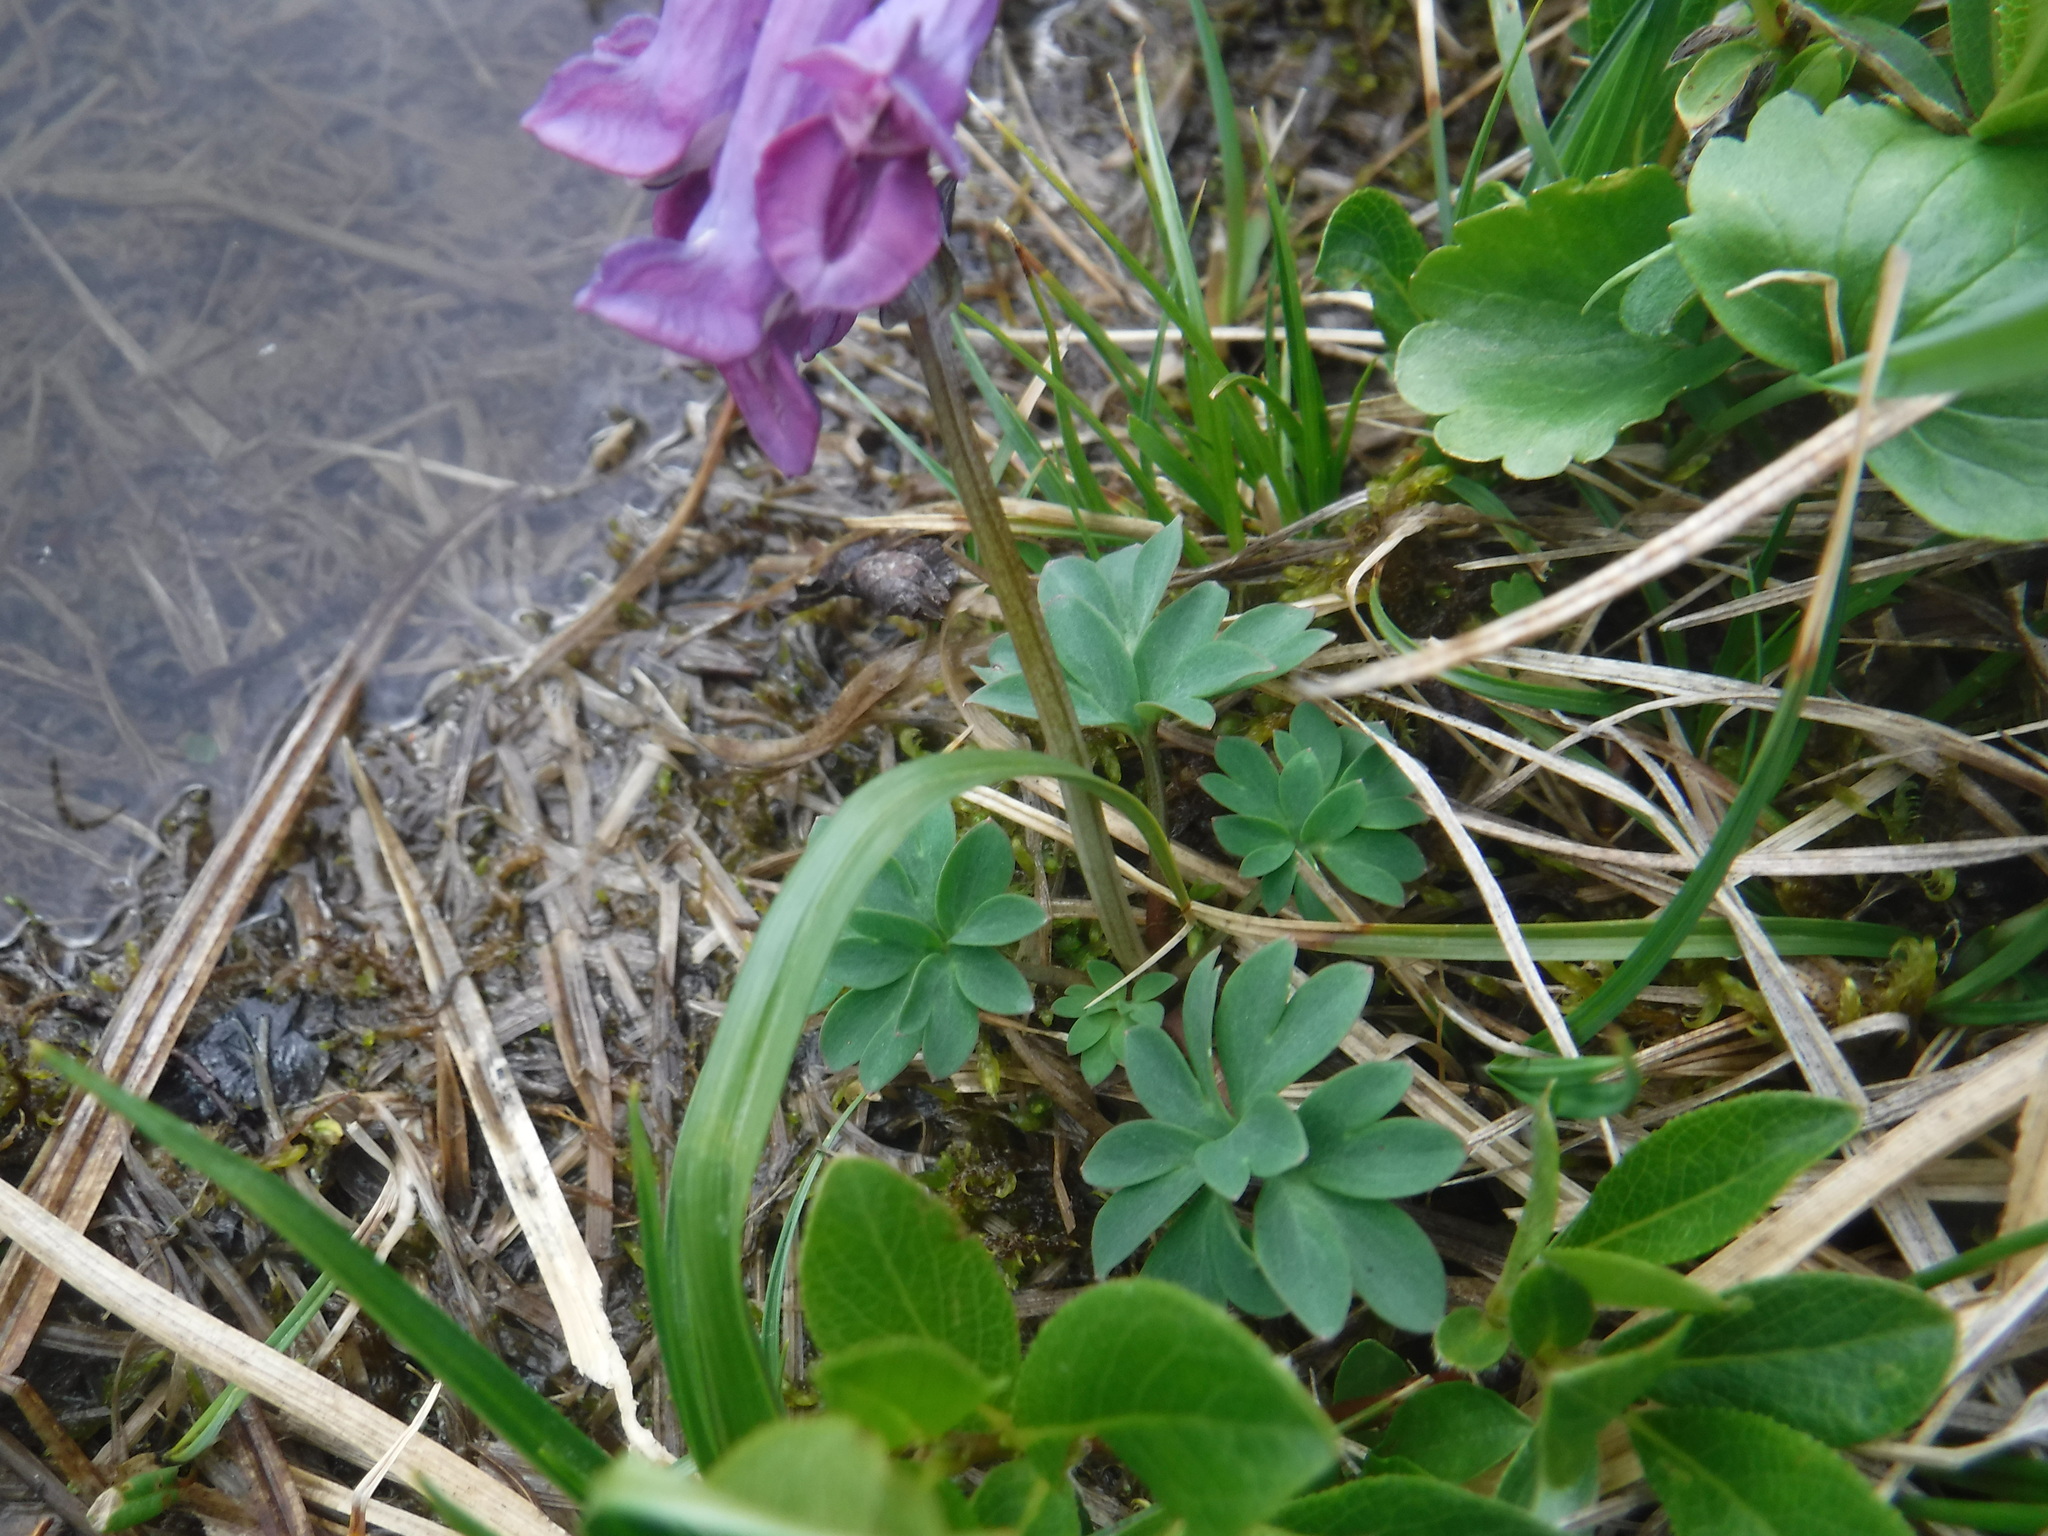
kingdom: Plantae
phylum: Tracheophyta
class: Magnoliopsida
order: Ranunculales
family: Papaveraceae
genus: Corydalis
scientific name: Corydalis pauciflora
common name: Blue corydalis
